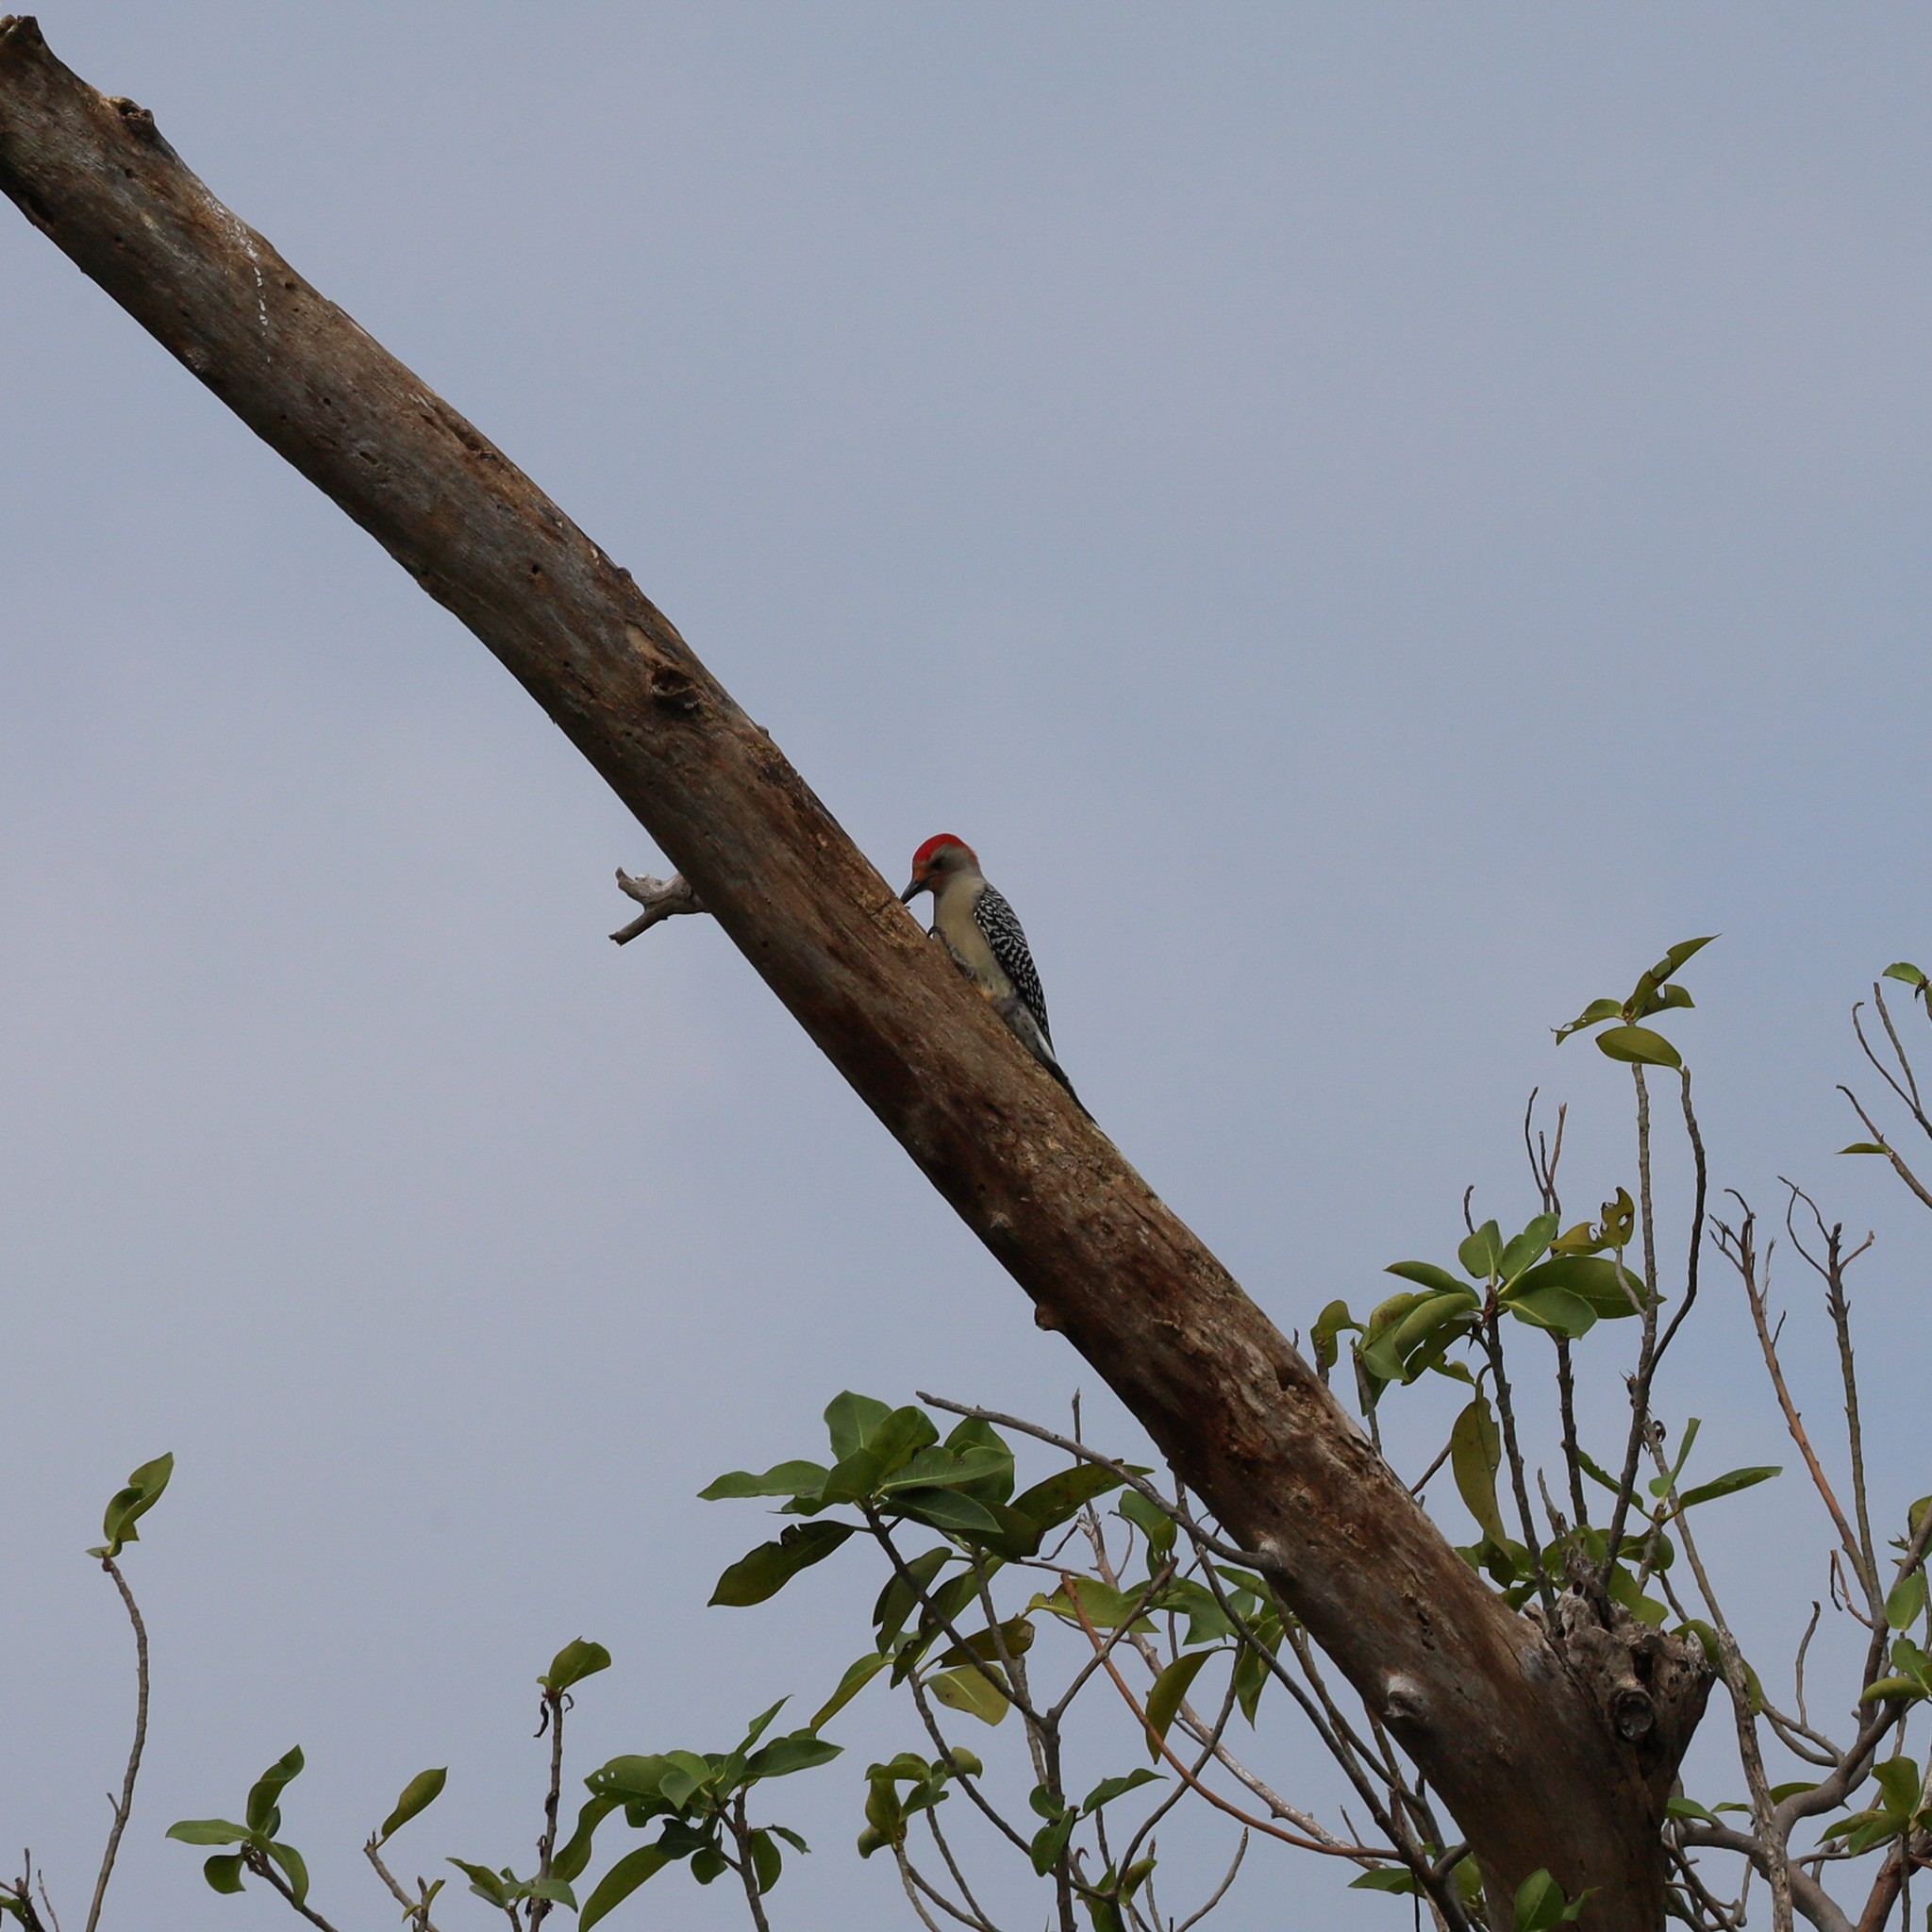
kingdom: Animalia
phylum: Chordata
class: Aves
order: Piciformes
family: Picidae
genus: Melanerpes
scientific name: Melanerpes carolinus
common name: Red-bellied woodpecker
